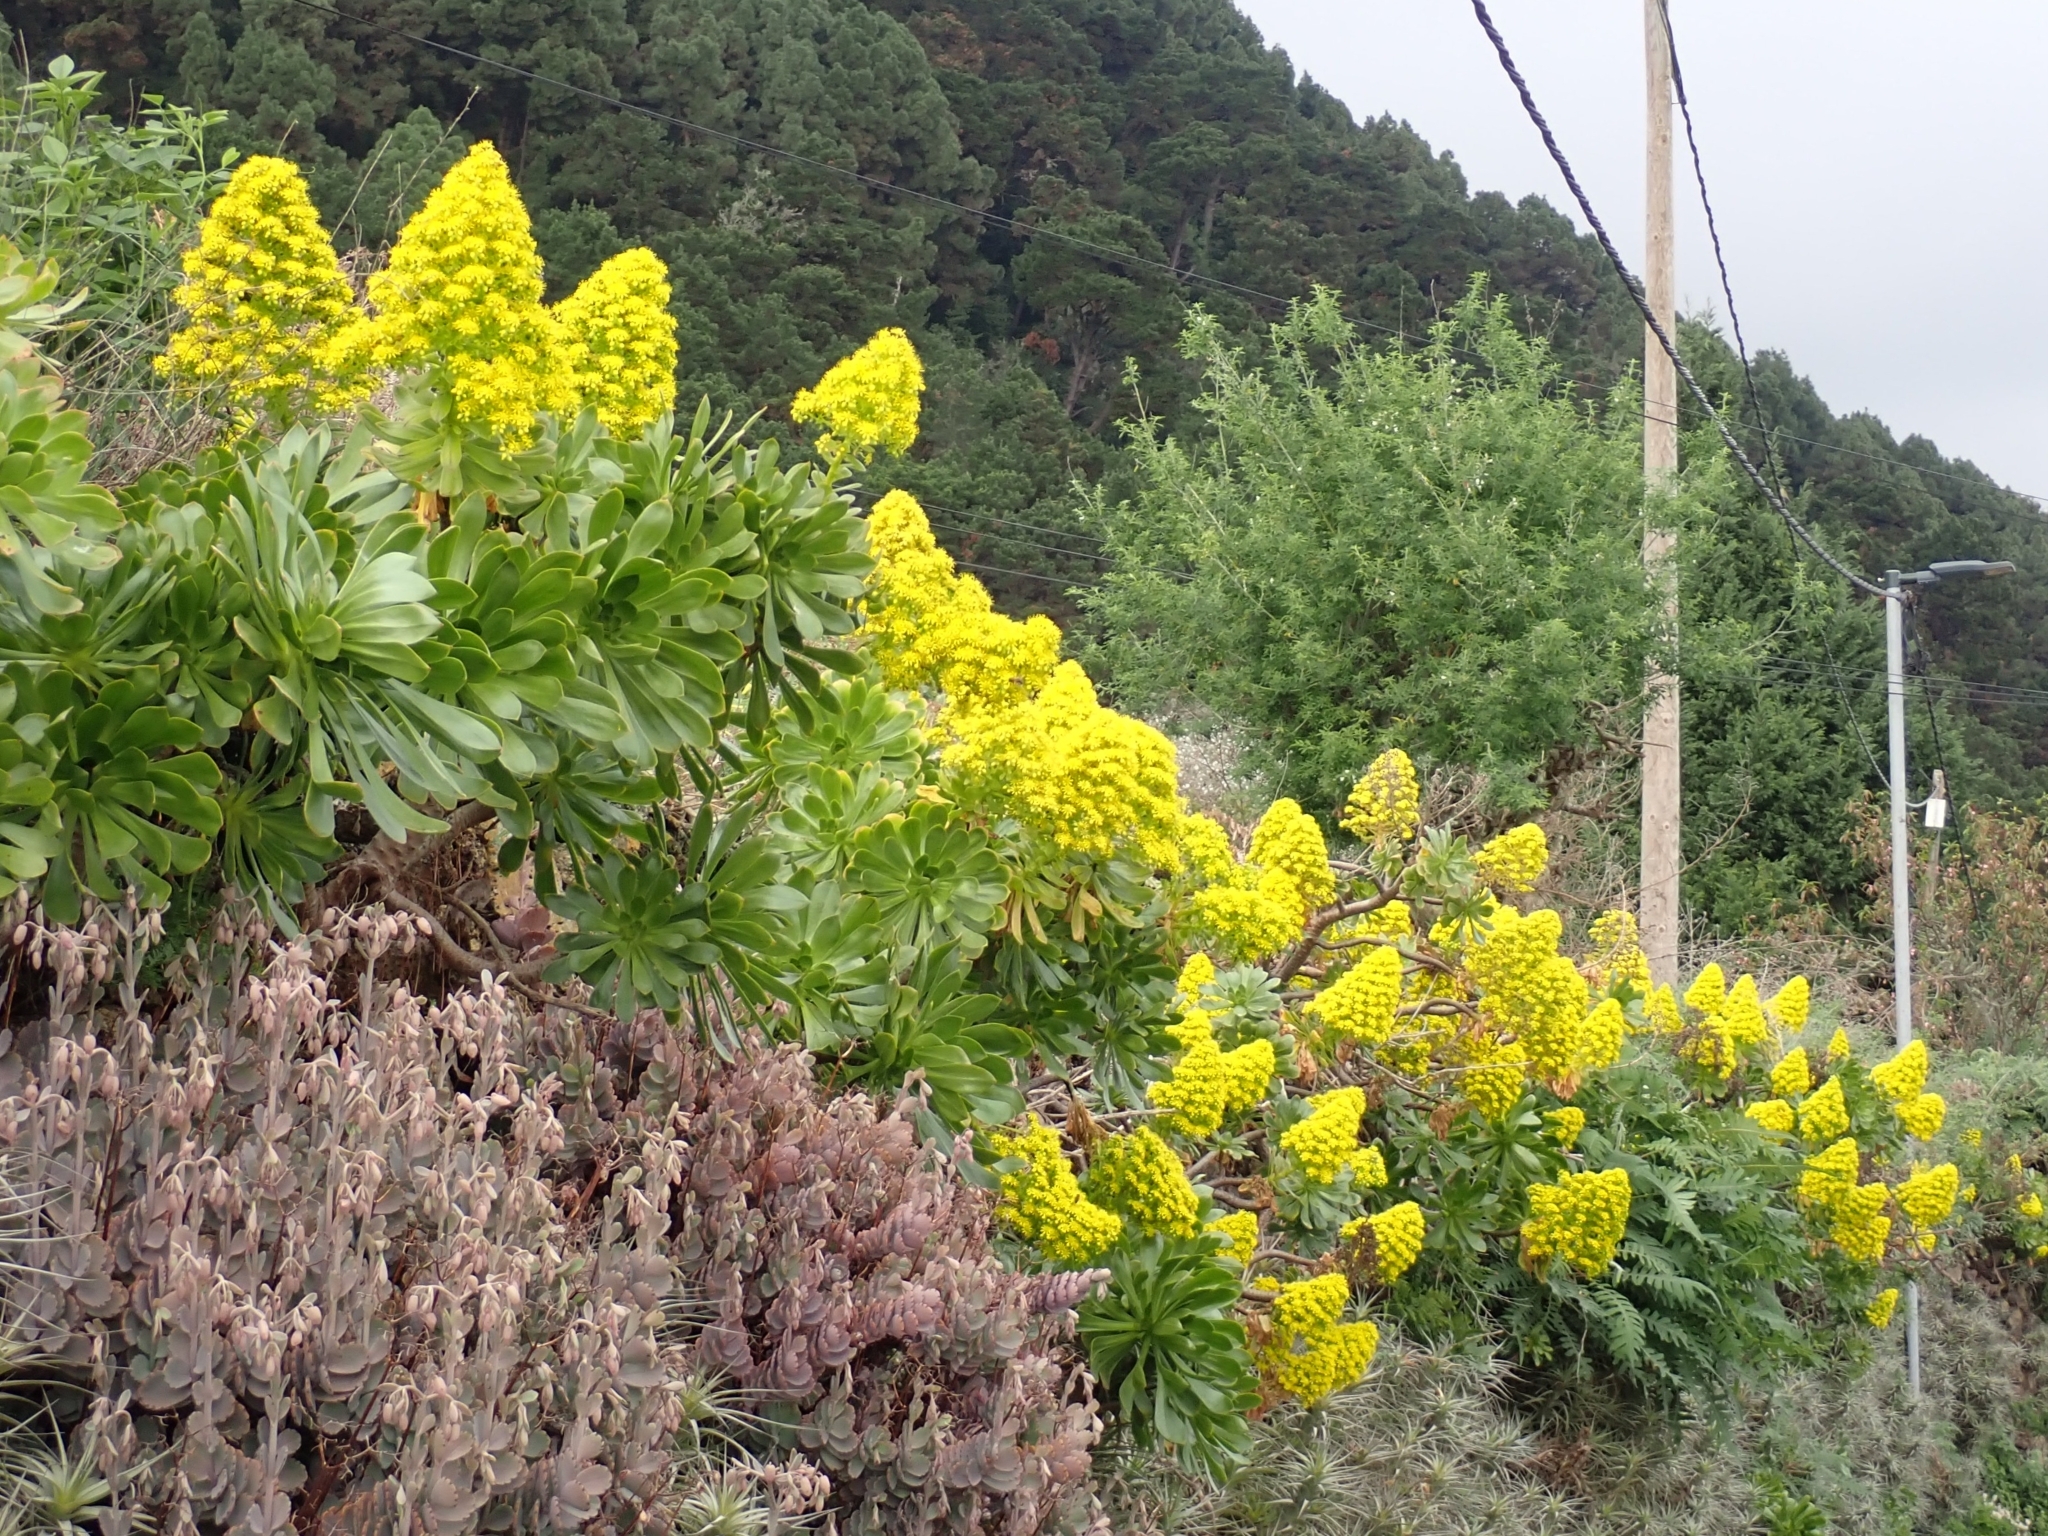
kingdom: Plantae
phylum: Tracheophyta
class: Magnoliopsida
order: Saxifragales
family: Crassulaceae
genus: Aeonium
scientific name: Aeonium arboreum
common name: Tree aeonium
